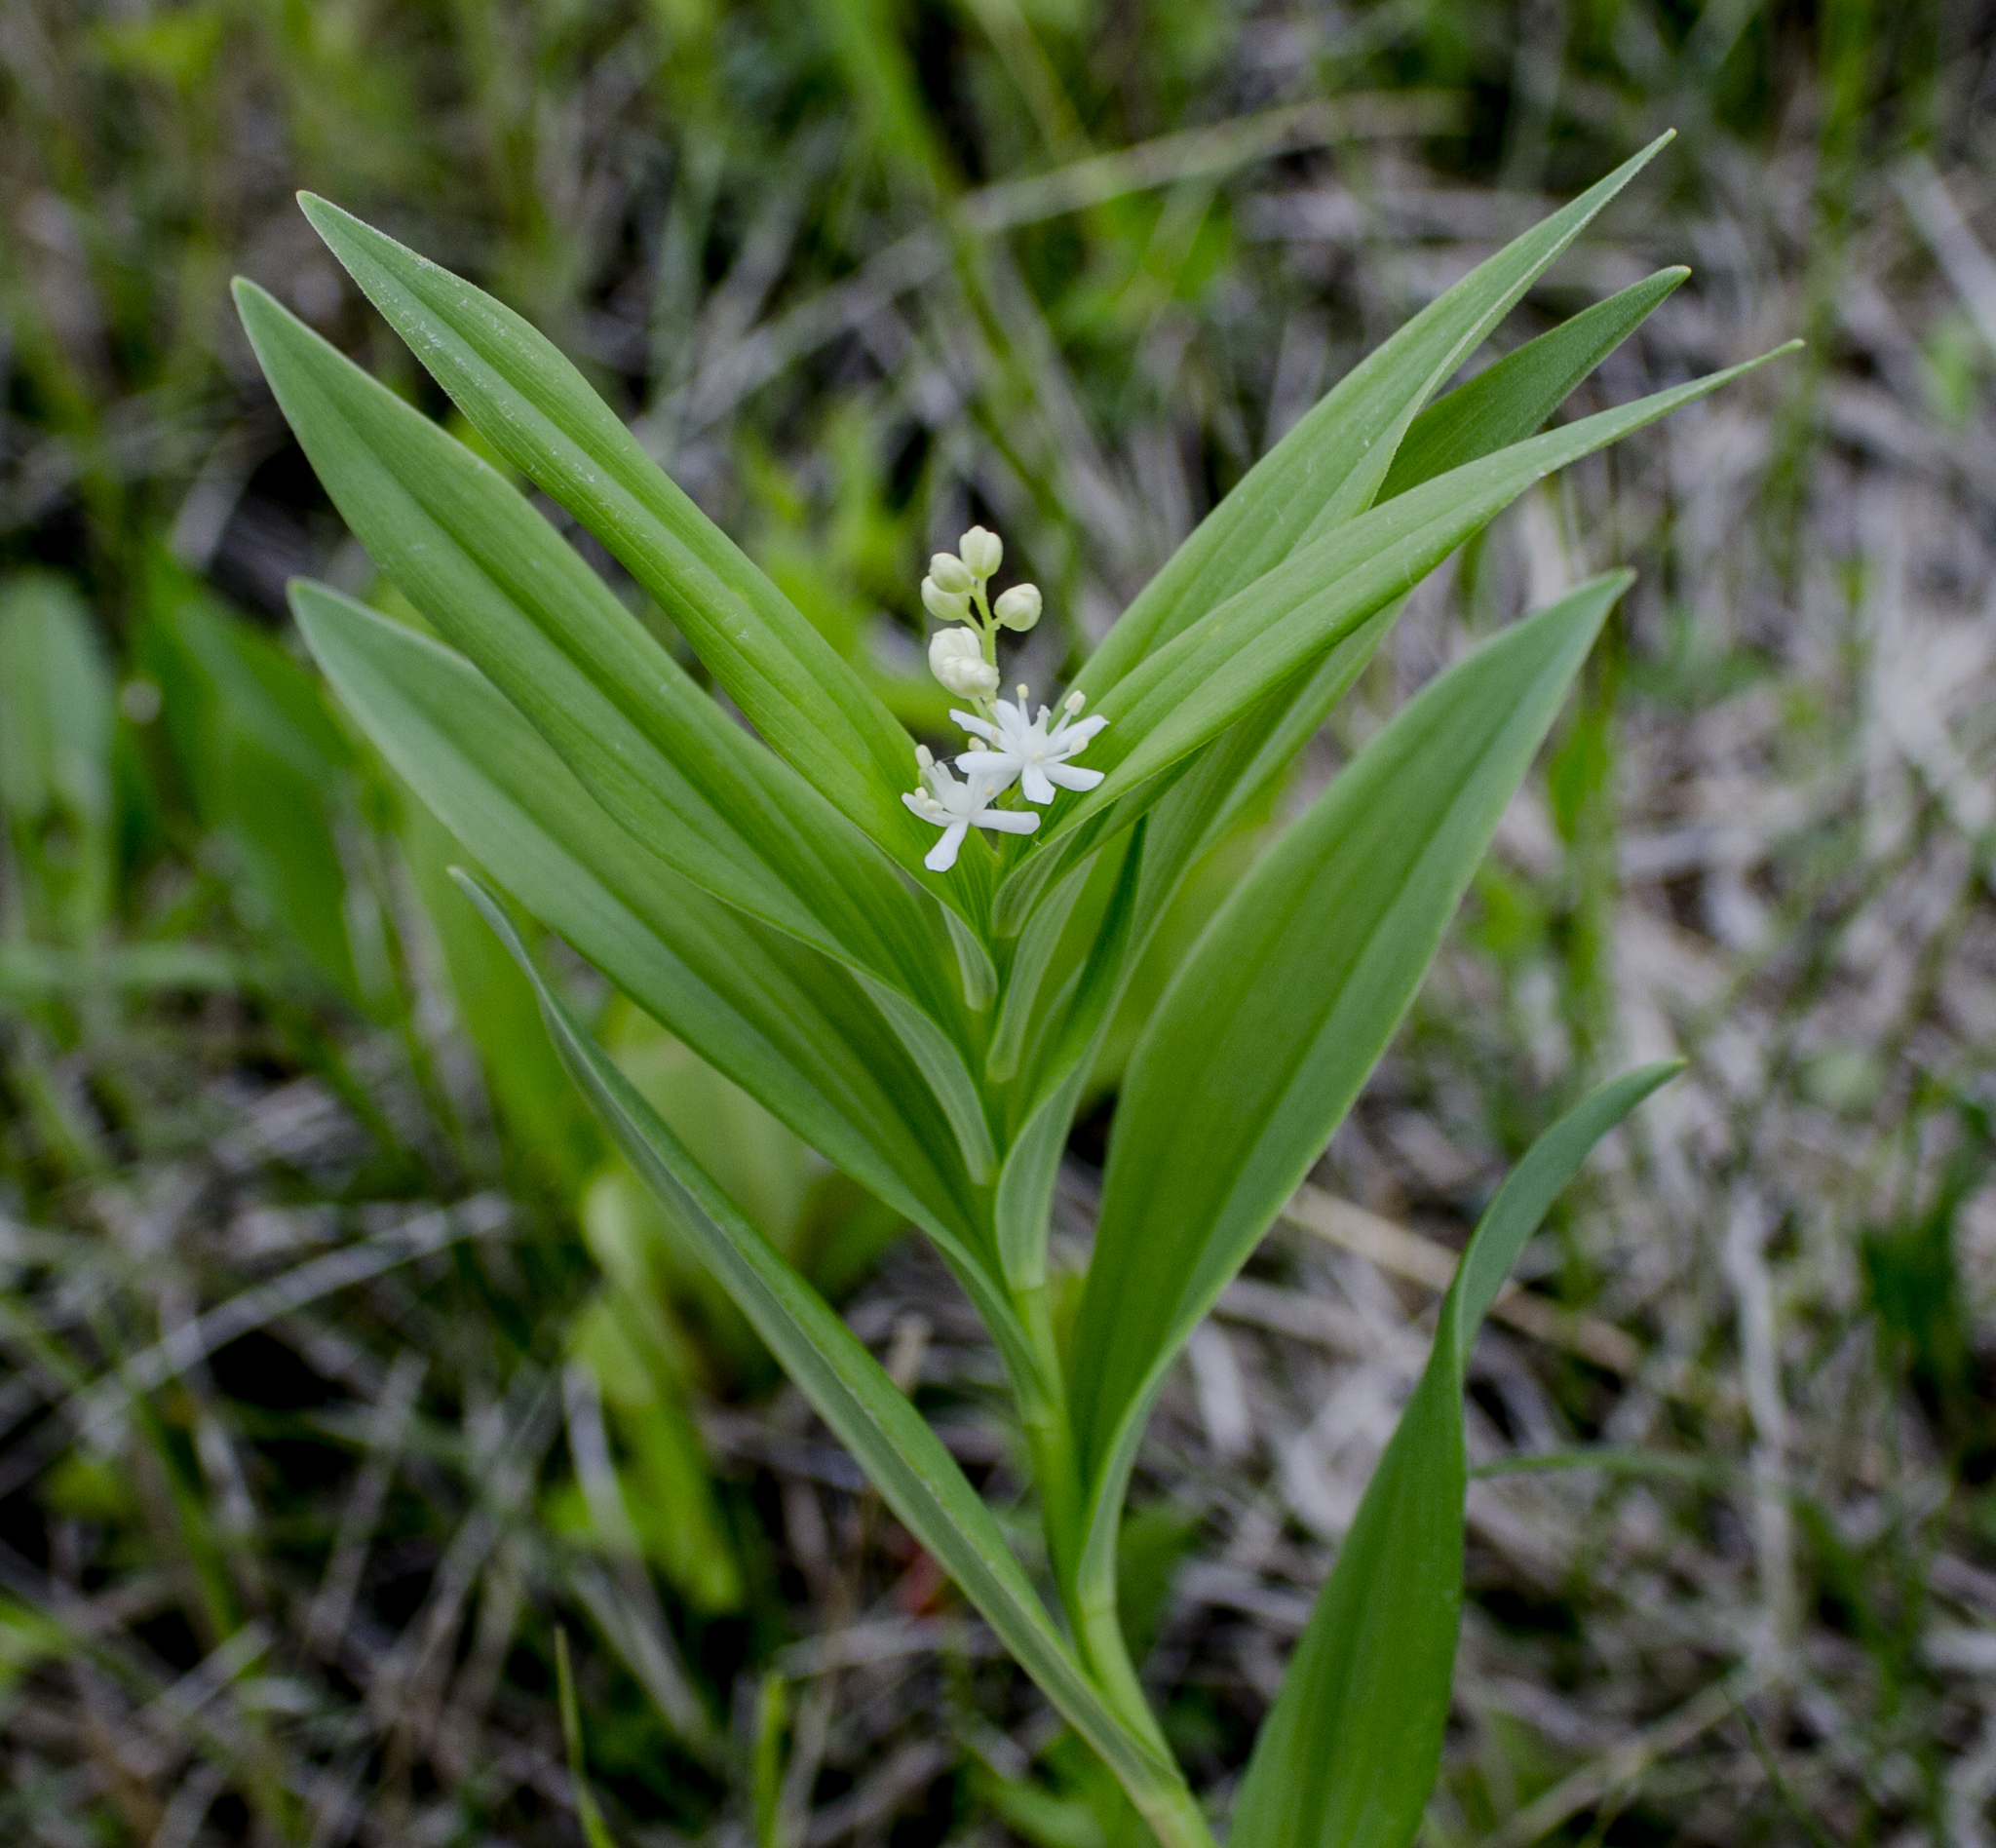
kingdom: Plantae
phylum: Tracheophyta
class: Liliopsida
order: Asparagales
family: Asparagaceae
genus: Maianthemum
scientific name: Maianthemum stellatum
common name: Little false solomon's seal
